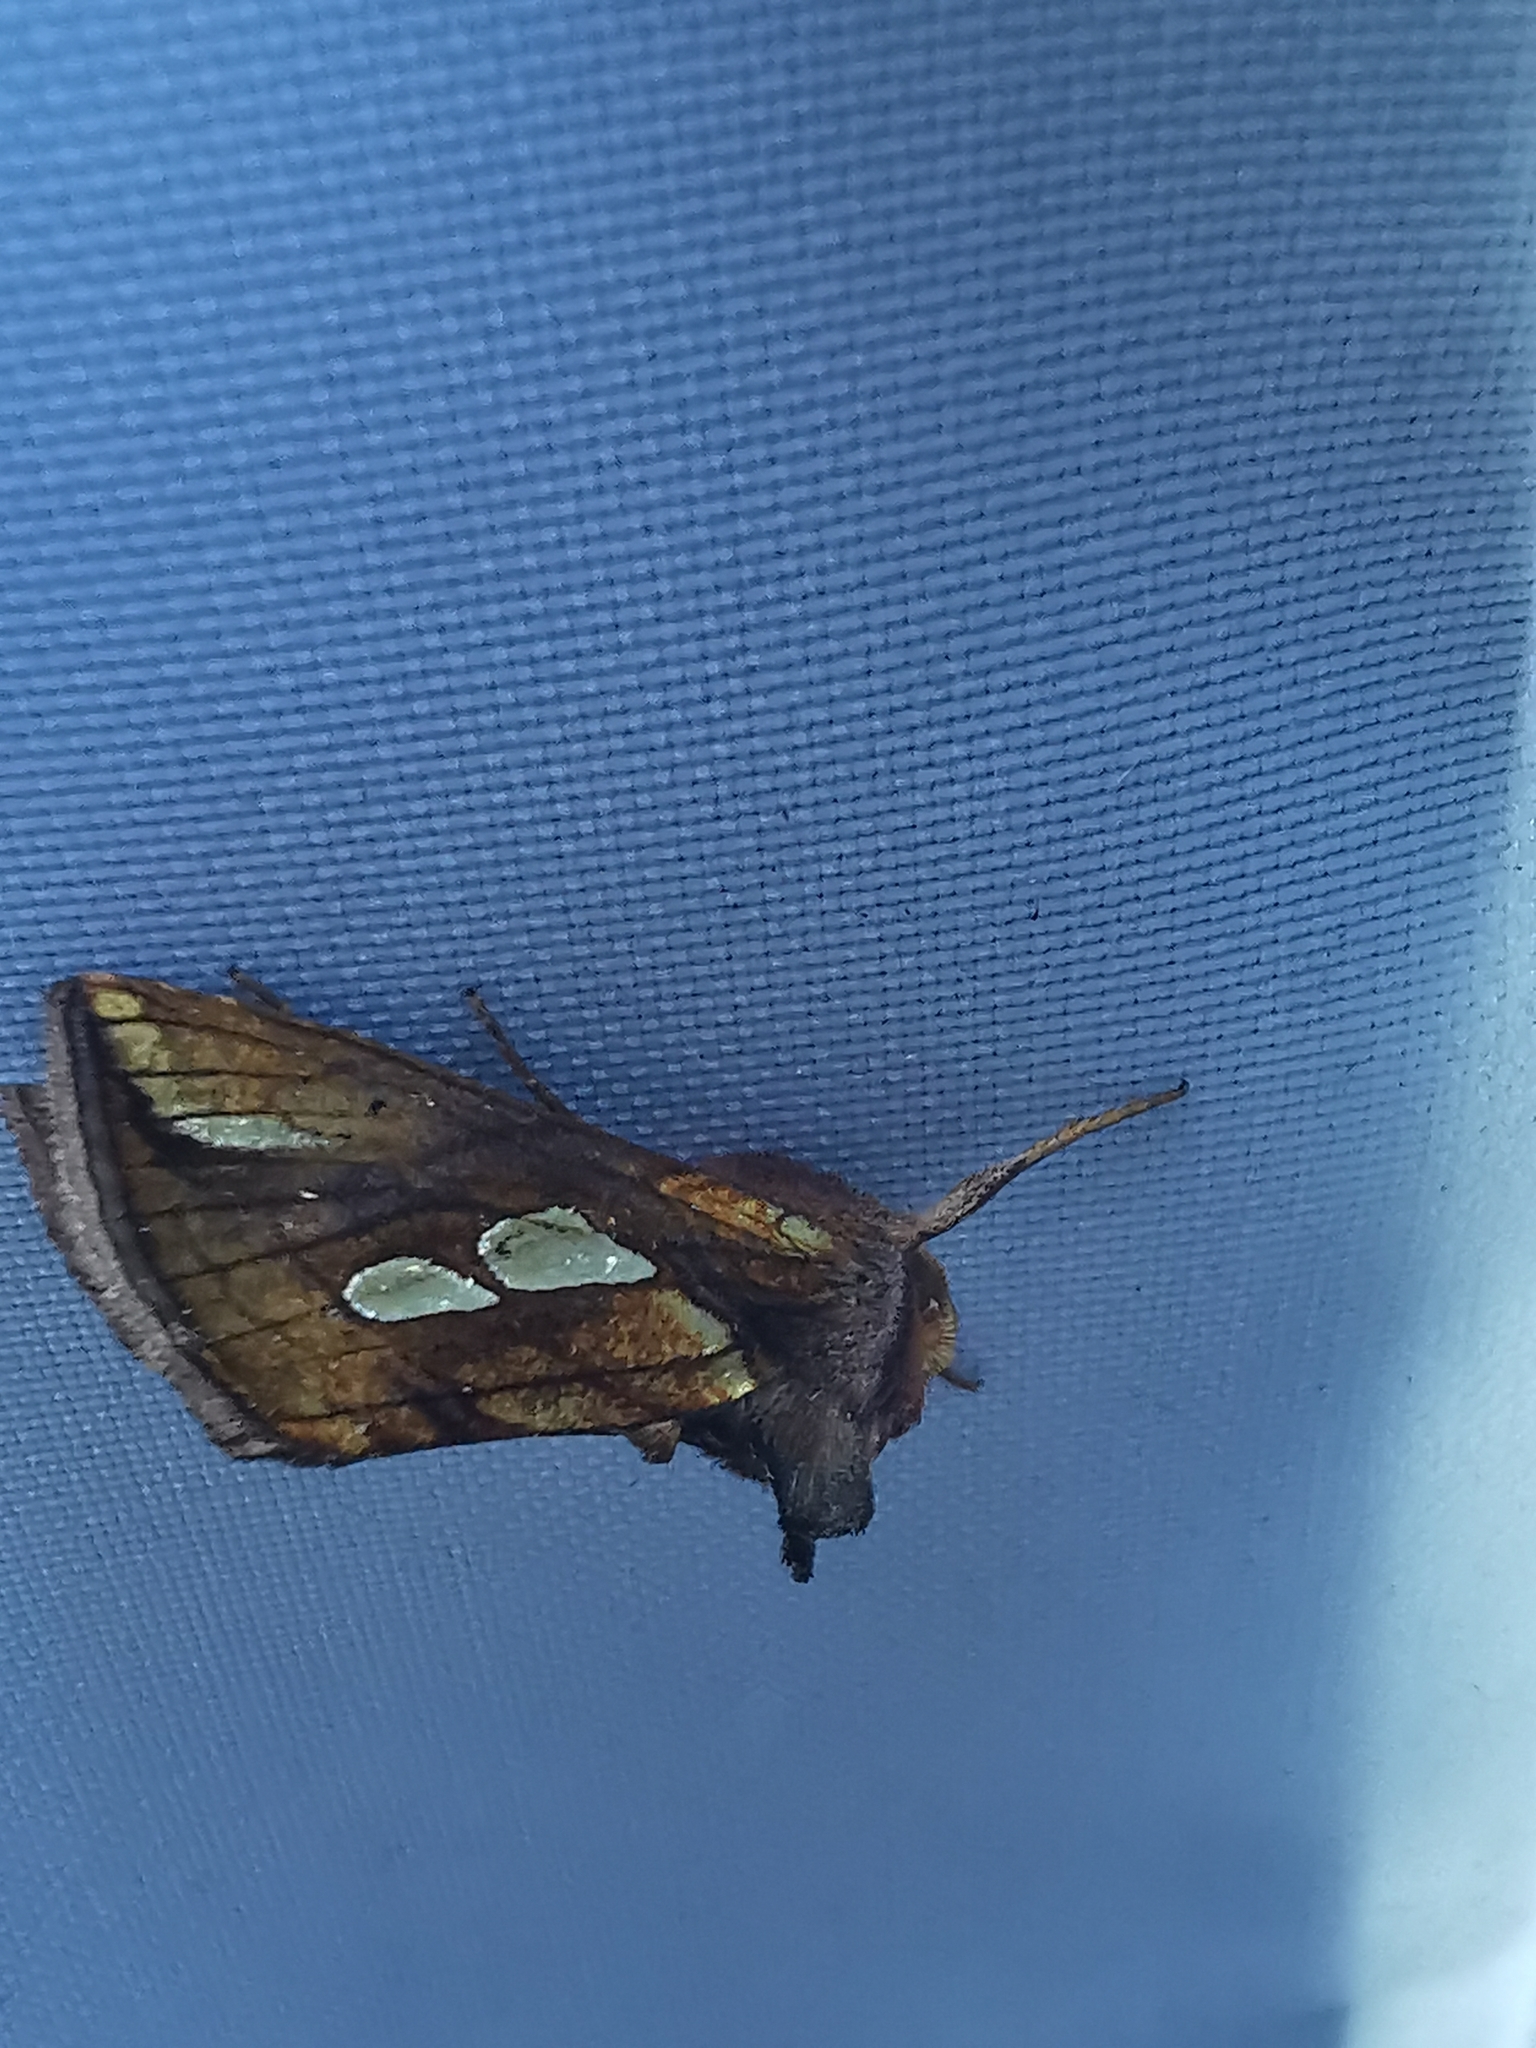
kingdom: Animalia
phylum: Arthropoda
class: Insecta
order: Lepidoptera
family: Noctuidae
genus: Plusia
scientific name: Plusia festucae
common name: Gold spot
